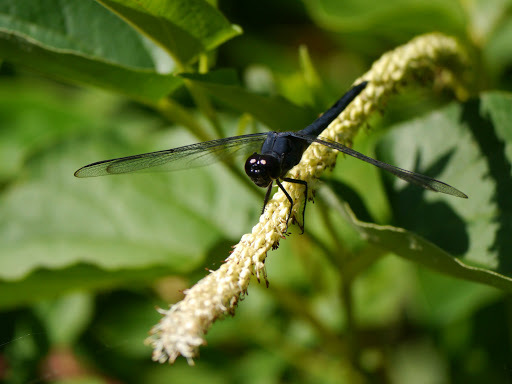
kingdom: Animalia
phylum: Arthropoda
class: Insecta
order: Odonata
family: Libellulidae
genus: Libellula
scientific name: Libellula incesta
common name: Slaty skimmer
